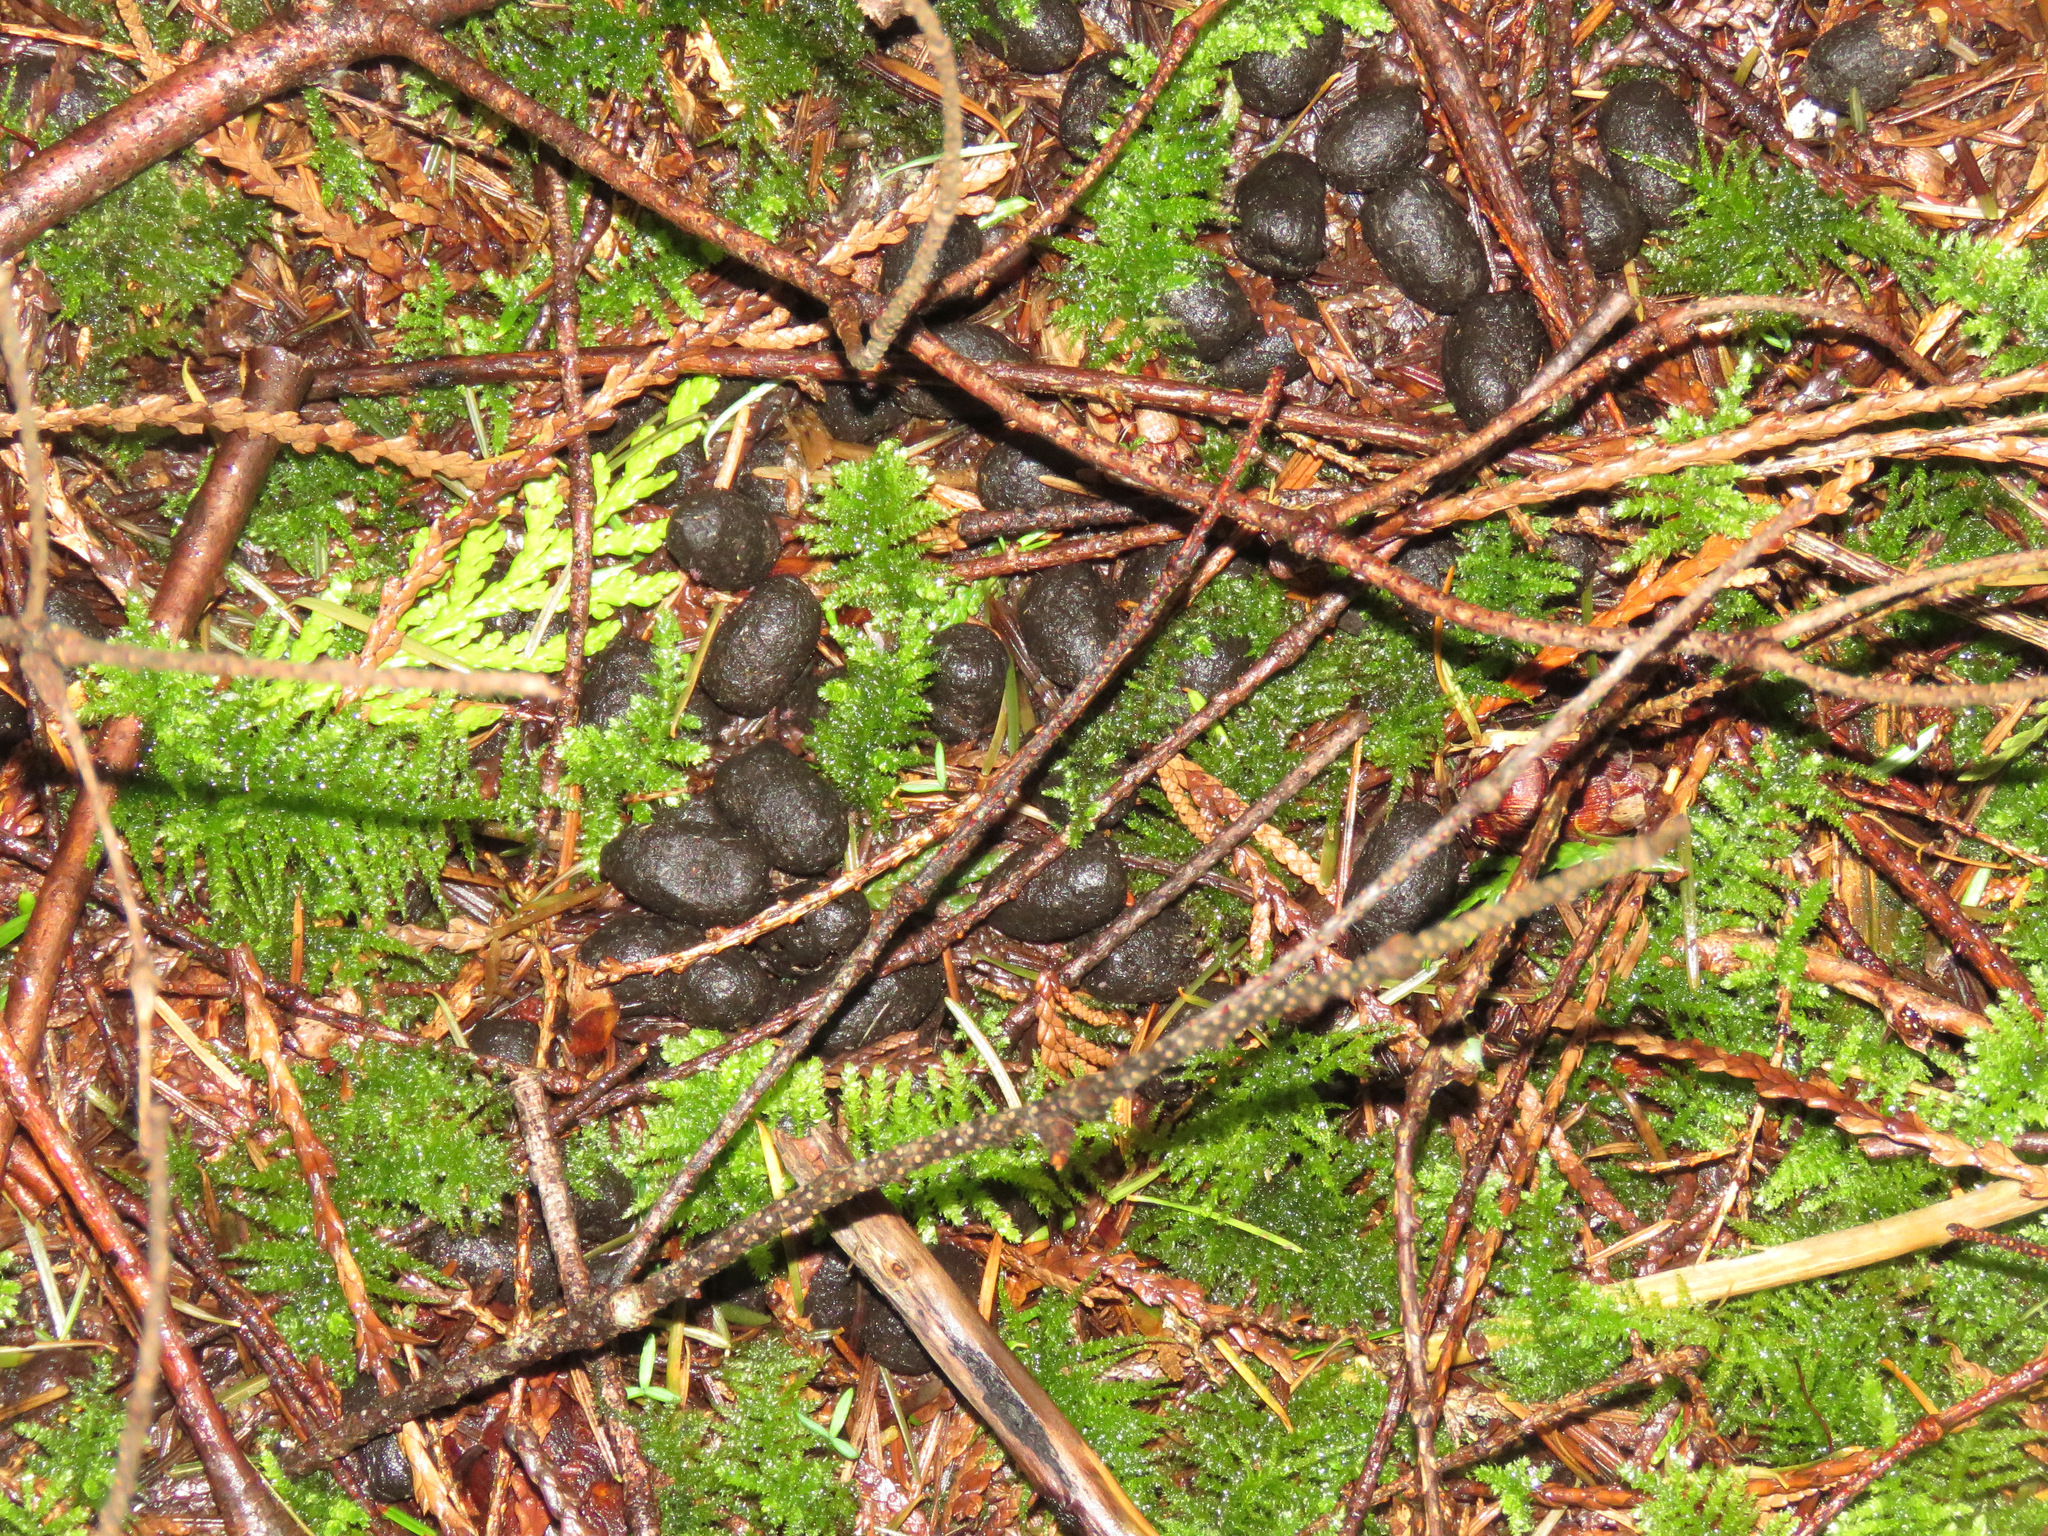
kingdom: Animalia
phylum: Chordata
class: Mammalia
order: Artiodactyla
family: Cervidae
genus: Odocoileus
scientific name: Odocoileus hemionus
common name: Mule deer
